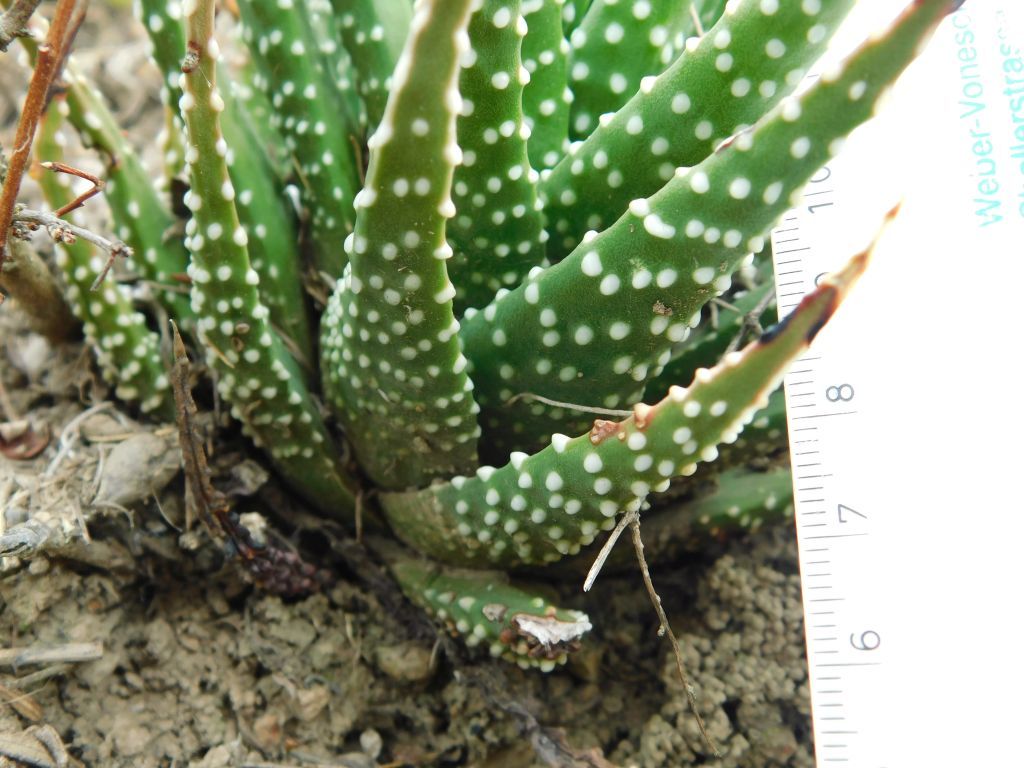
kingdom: Plantae
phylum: Tracheophyta
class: Liliopsida
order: Asparagales
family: Asphodelaceae
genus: Tulista
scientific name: Tulista minor
